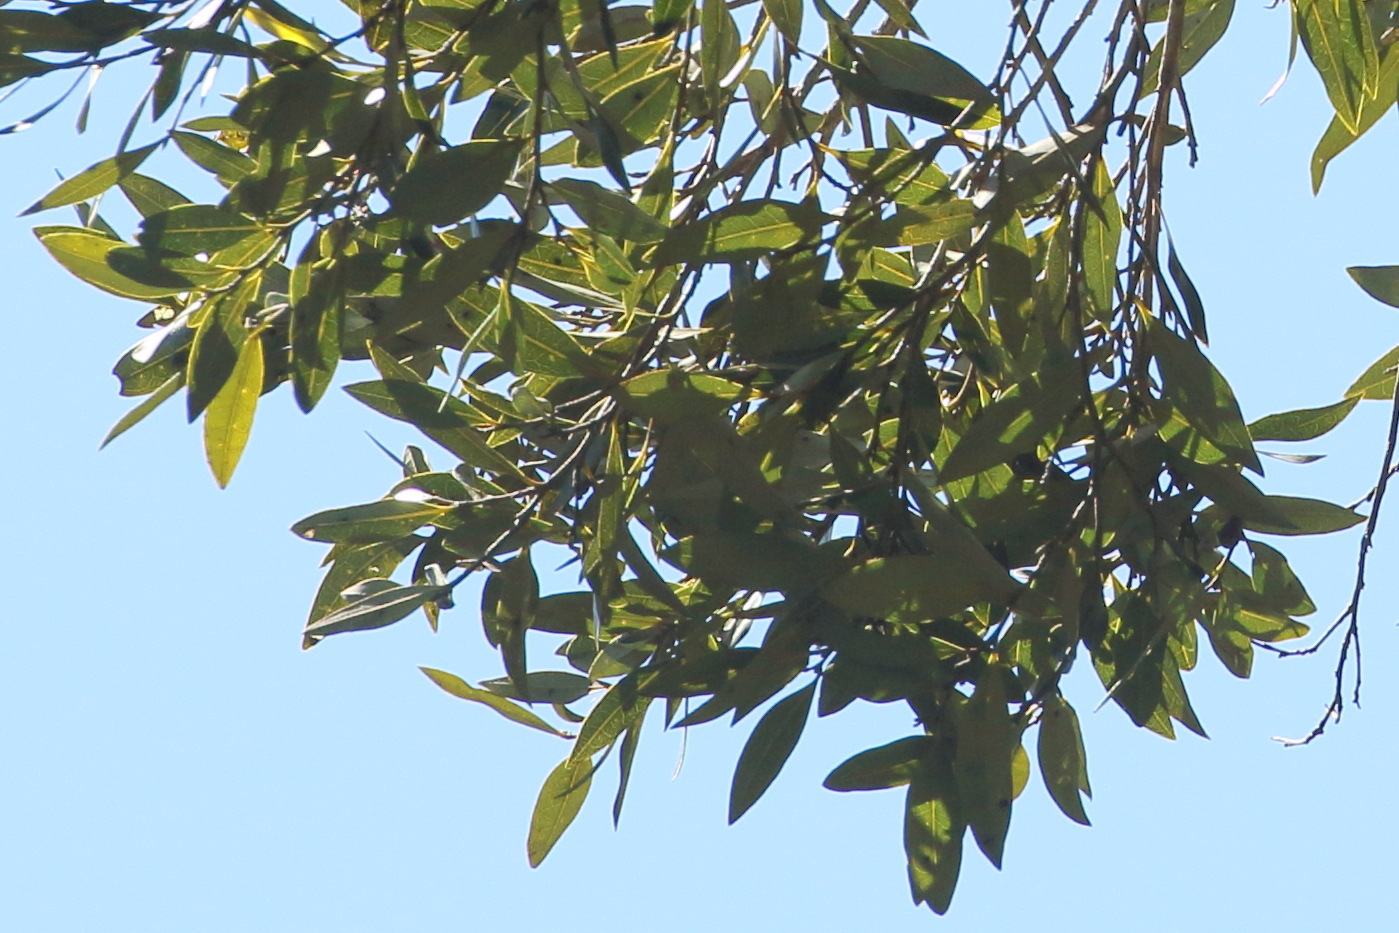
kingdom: Plantae
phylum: Tracheophyta
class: Magnoliopsida
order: Ericales
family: Ebenaceae
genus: Diospyros
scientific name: Diospyros pentamera
